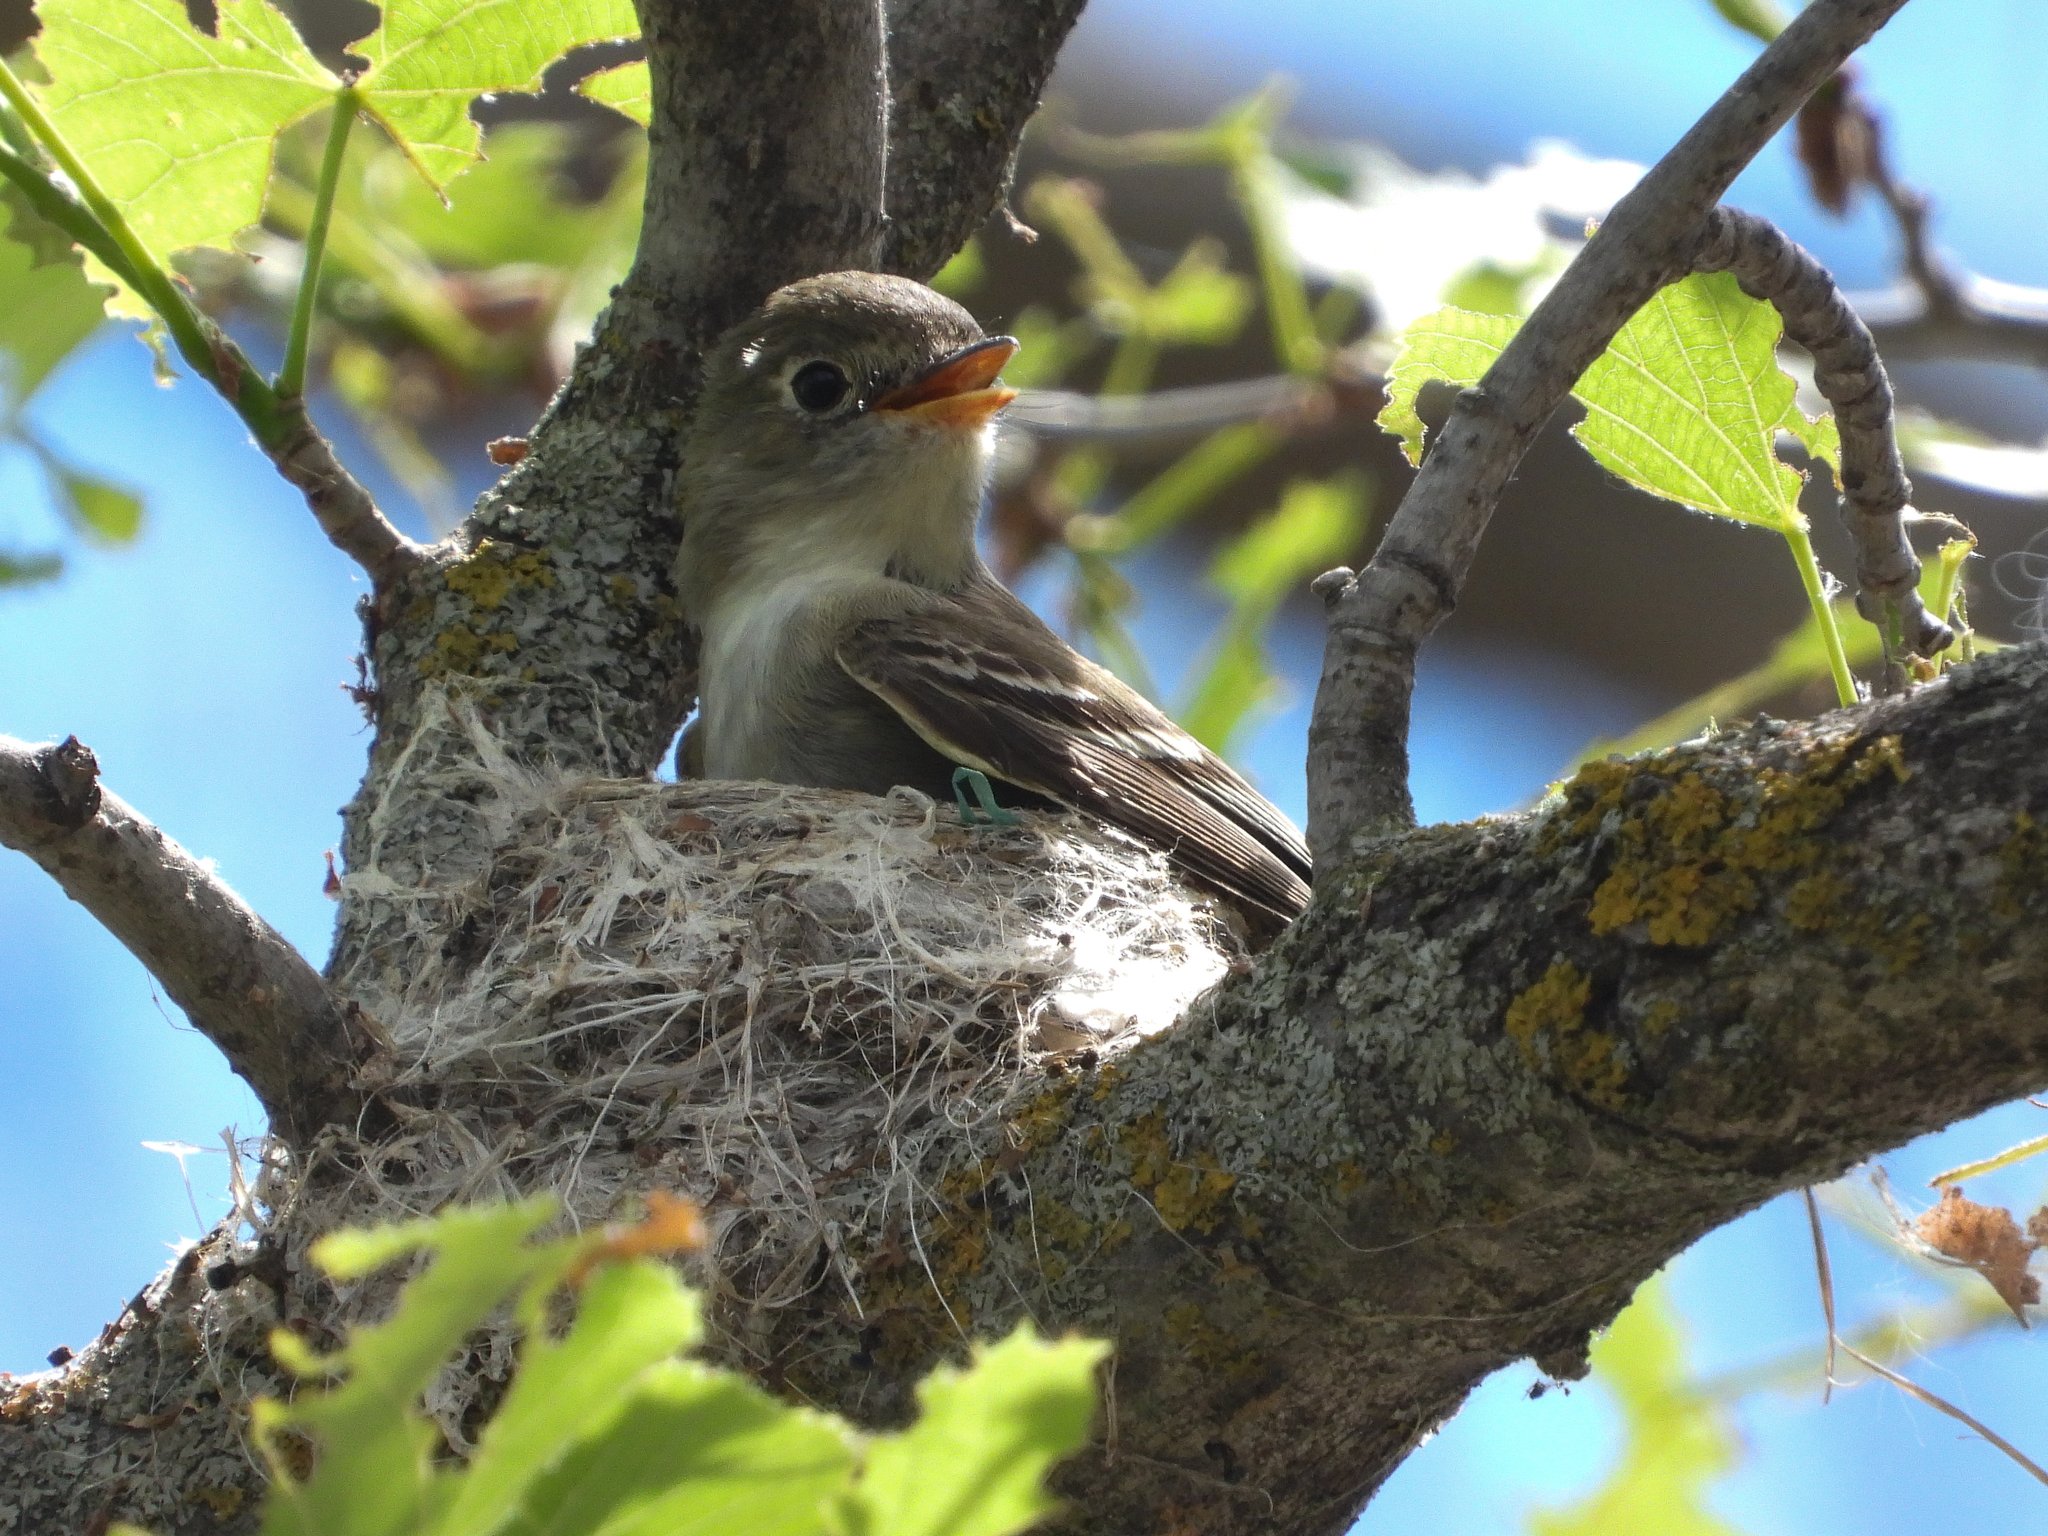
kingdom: Animalia
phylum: Chordata
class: Aves
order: Passeriformes
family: Tyrannidae
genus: Empidonax
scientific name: Empidonax minimus
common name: Least flycatcher
